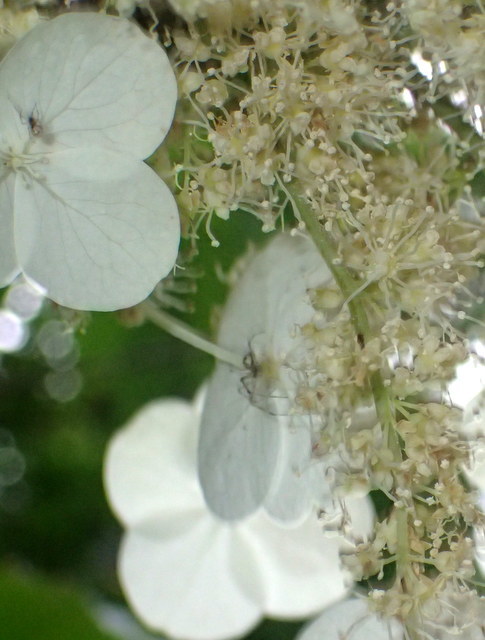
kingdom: Plantae
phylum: Tracheophyta
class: Magnoliopsida
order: Cornales
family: Hydrangeaceae
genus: Hydrangea
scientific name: Hydrangea quercifolia
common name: Oak-leaf hydrangea
